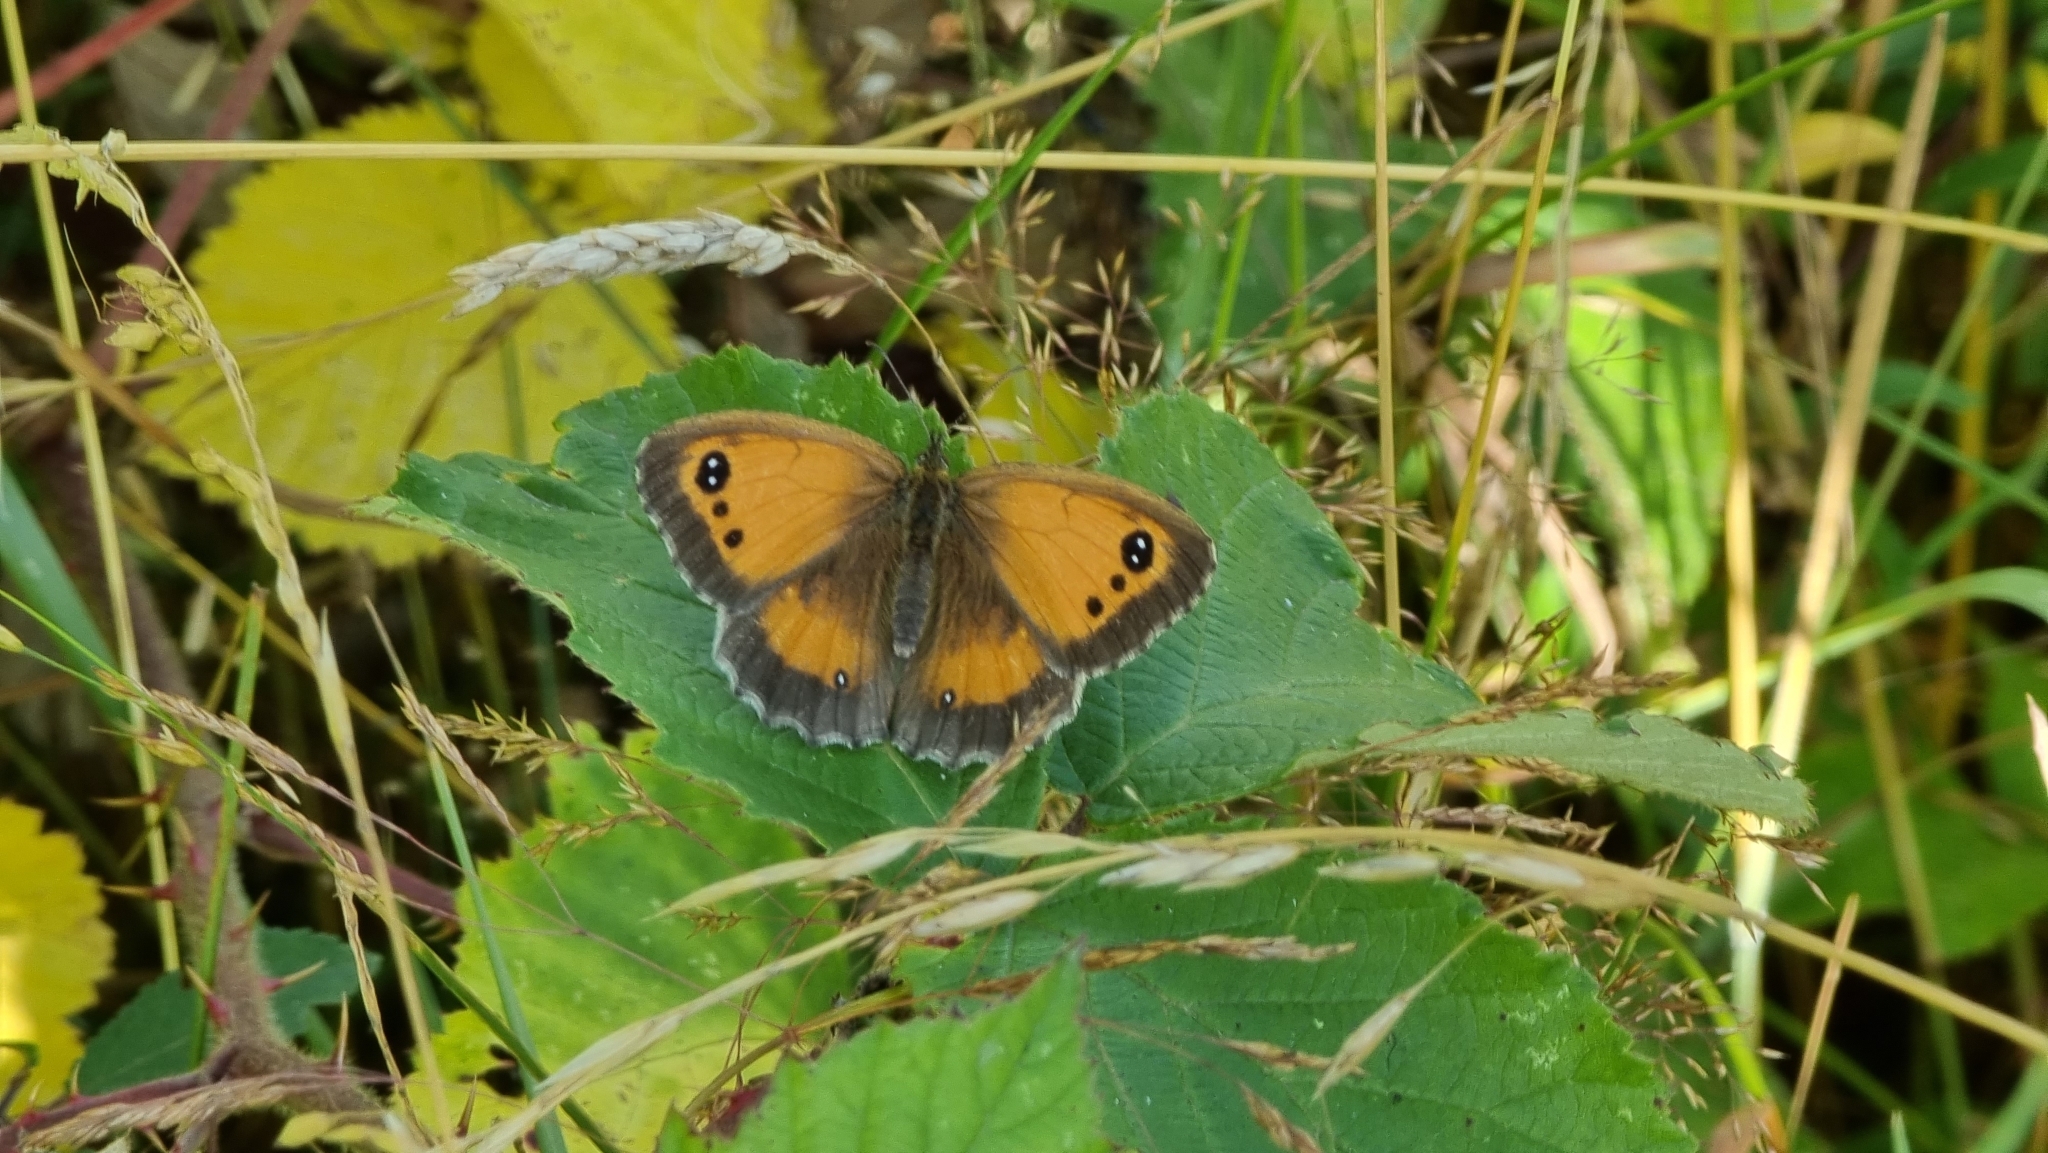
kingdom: Animalia
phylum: Arthropoda
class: Insecta
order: Lepidoptera
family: Nymphalidae
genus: Pyronia
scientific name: Pyronia tithonus
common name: Gatekeeper
